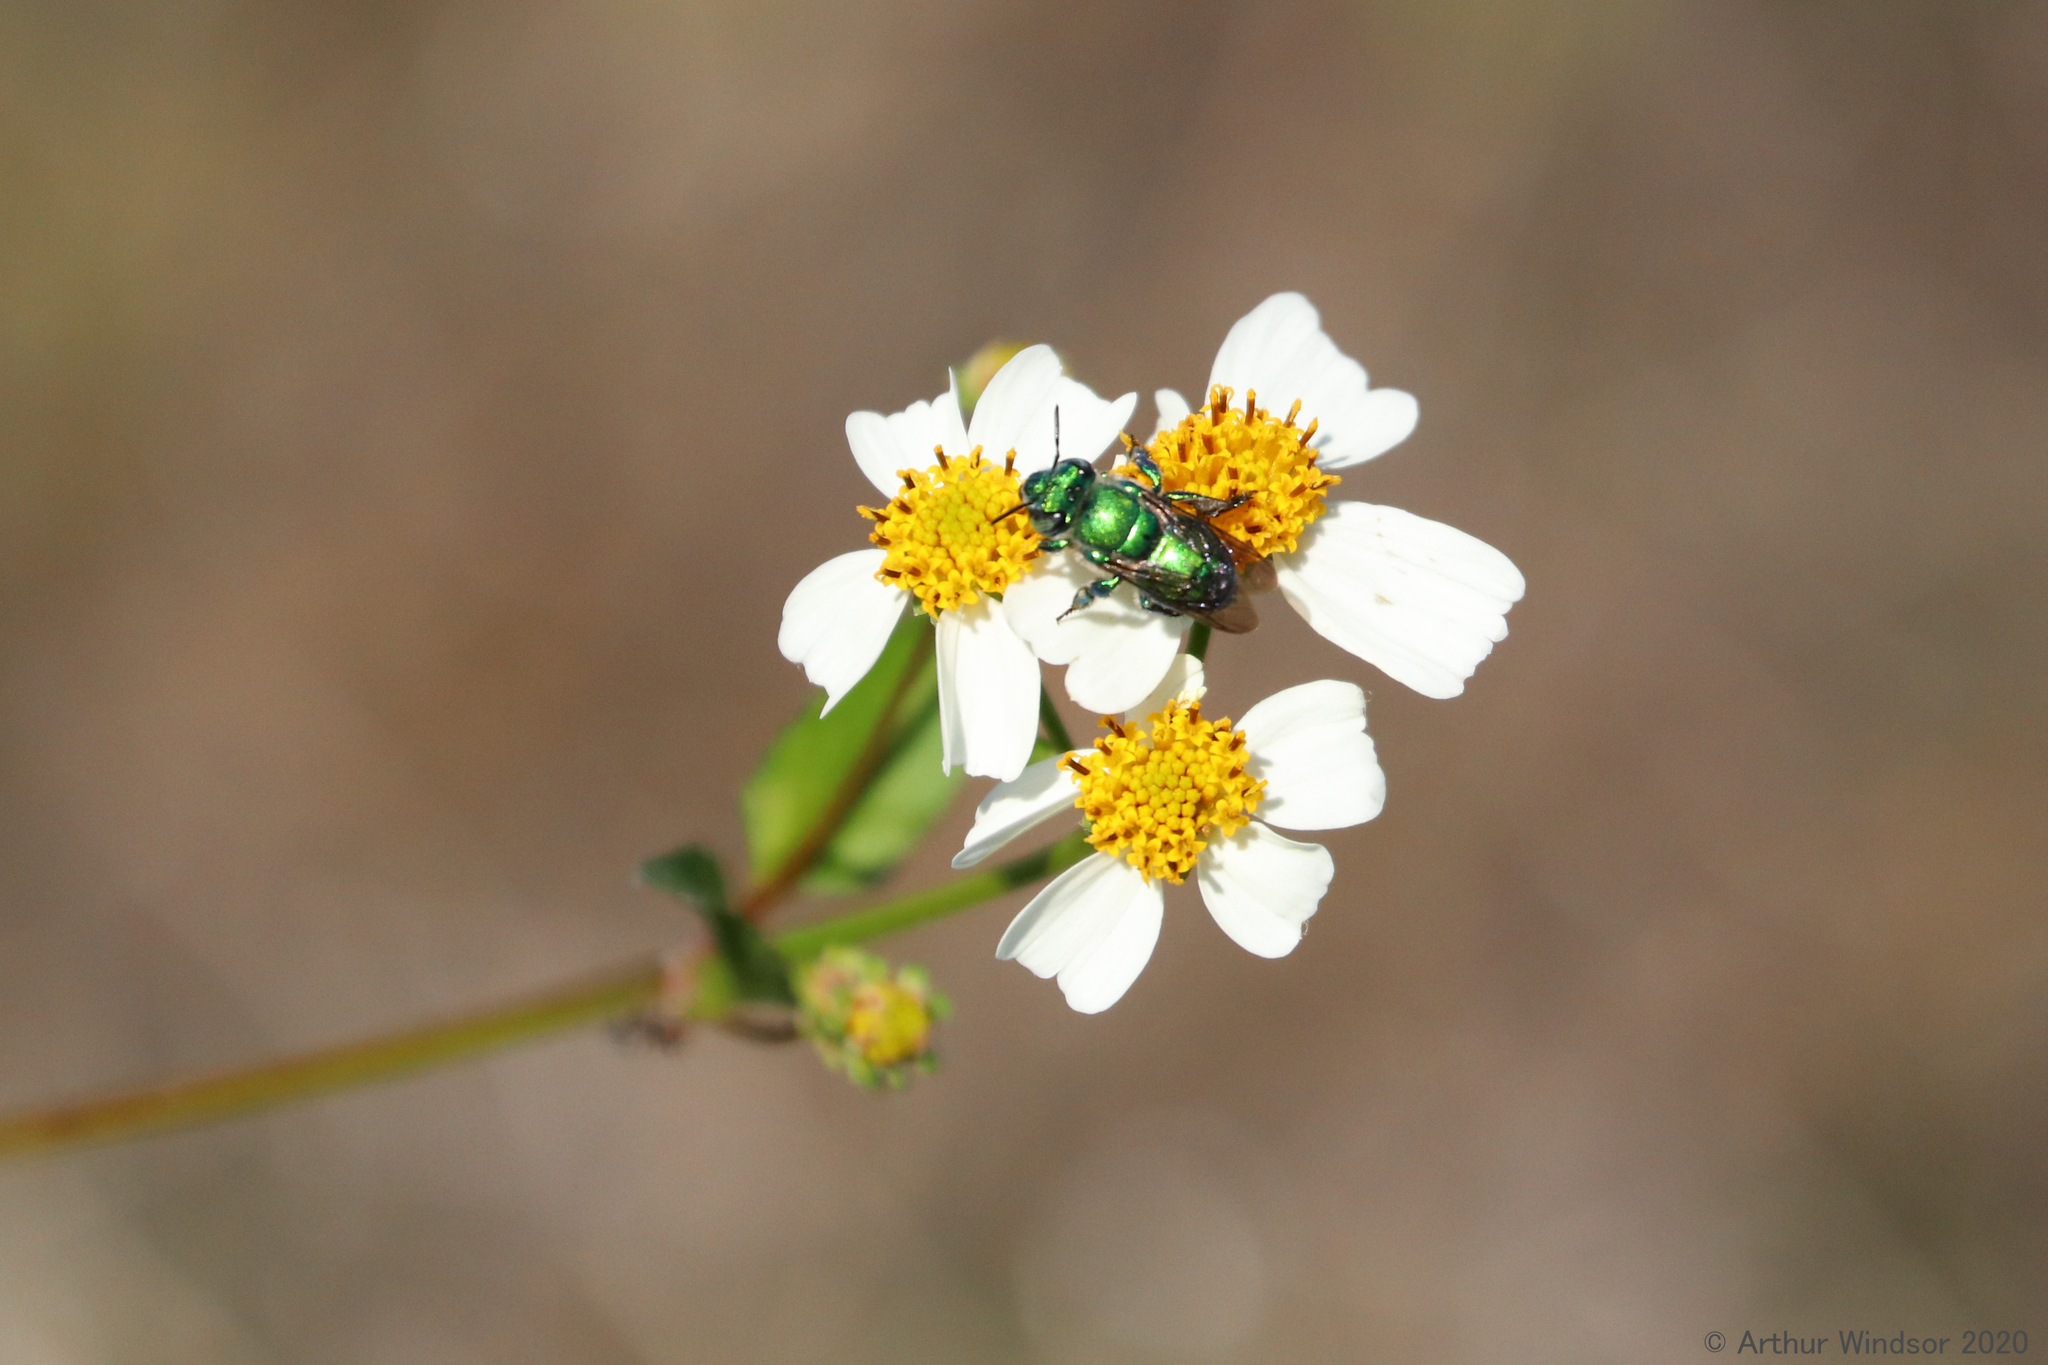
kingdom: Animalia
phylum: Arthropoda
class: Insecta
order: Hymenoptera
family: Apidae
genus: Euglossa
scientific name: Euglossa dilemma
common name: Green orchid bee
